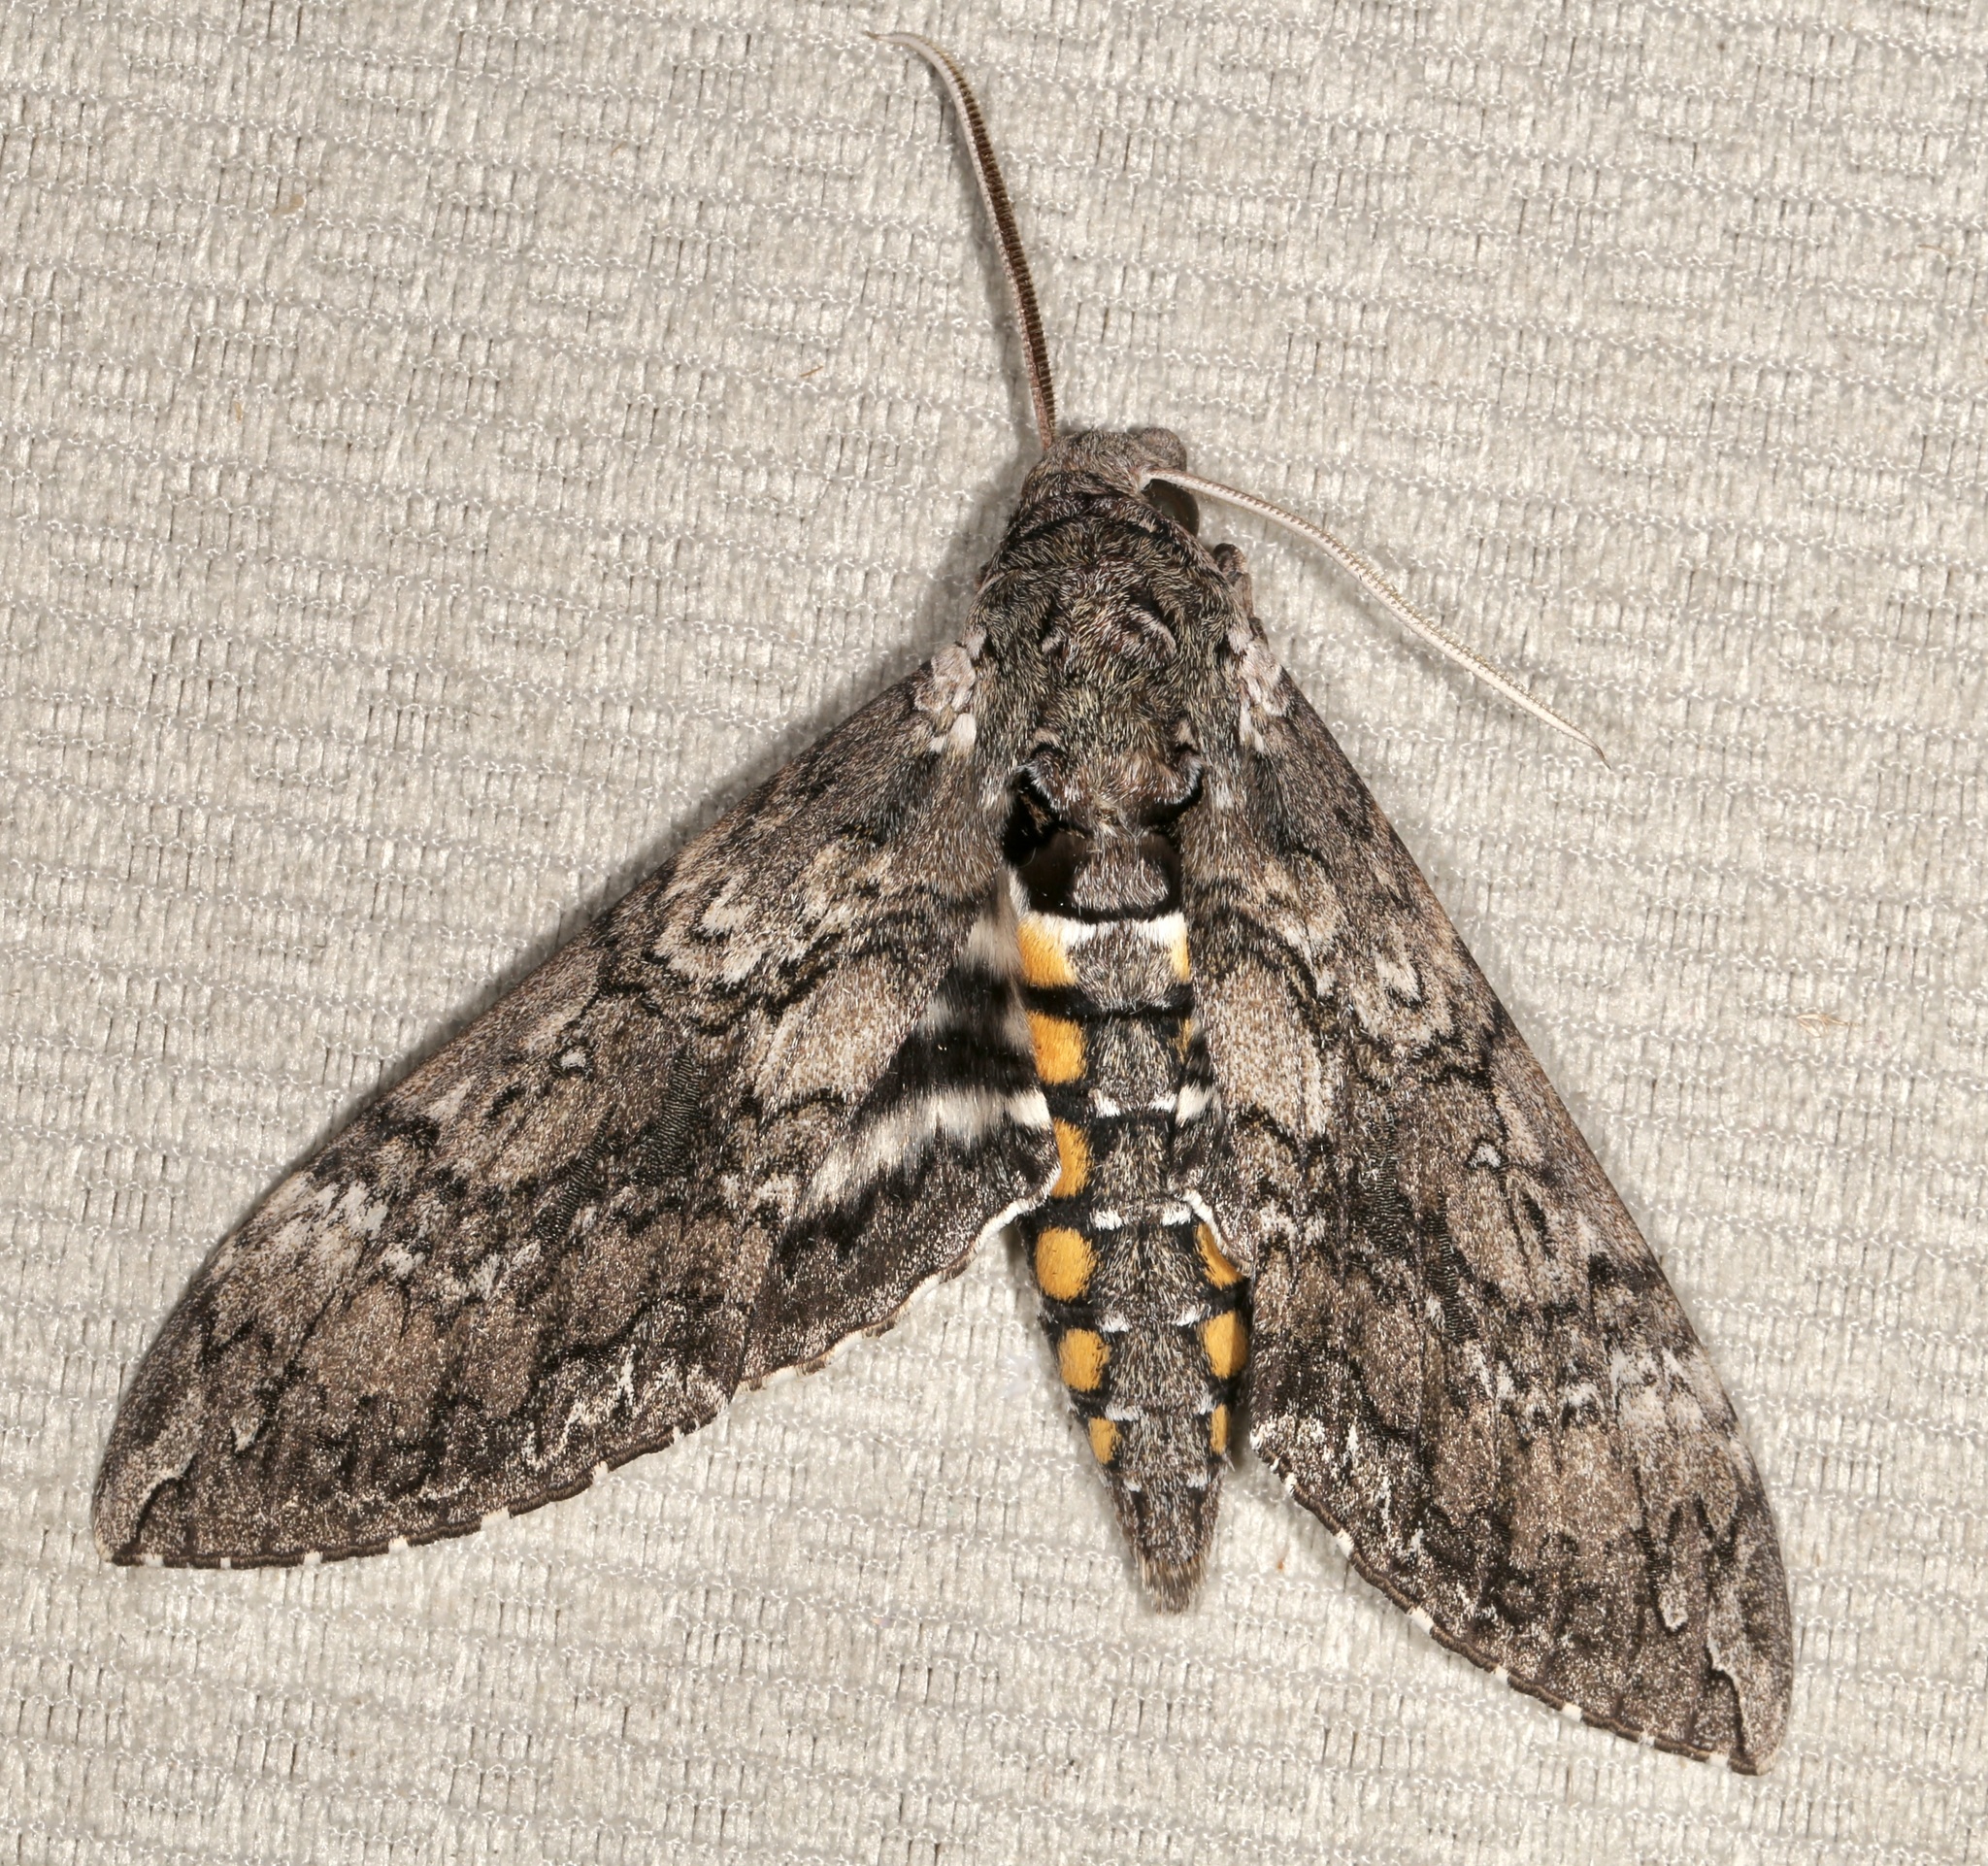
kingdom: Animalia
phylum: Arthropoda
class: Insecta
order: Lepidoptera
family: Sphingidae
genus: Manduca
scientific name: Manduca sexta
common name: Carolina sphinx
